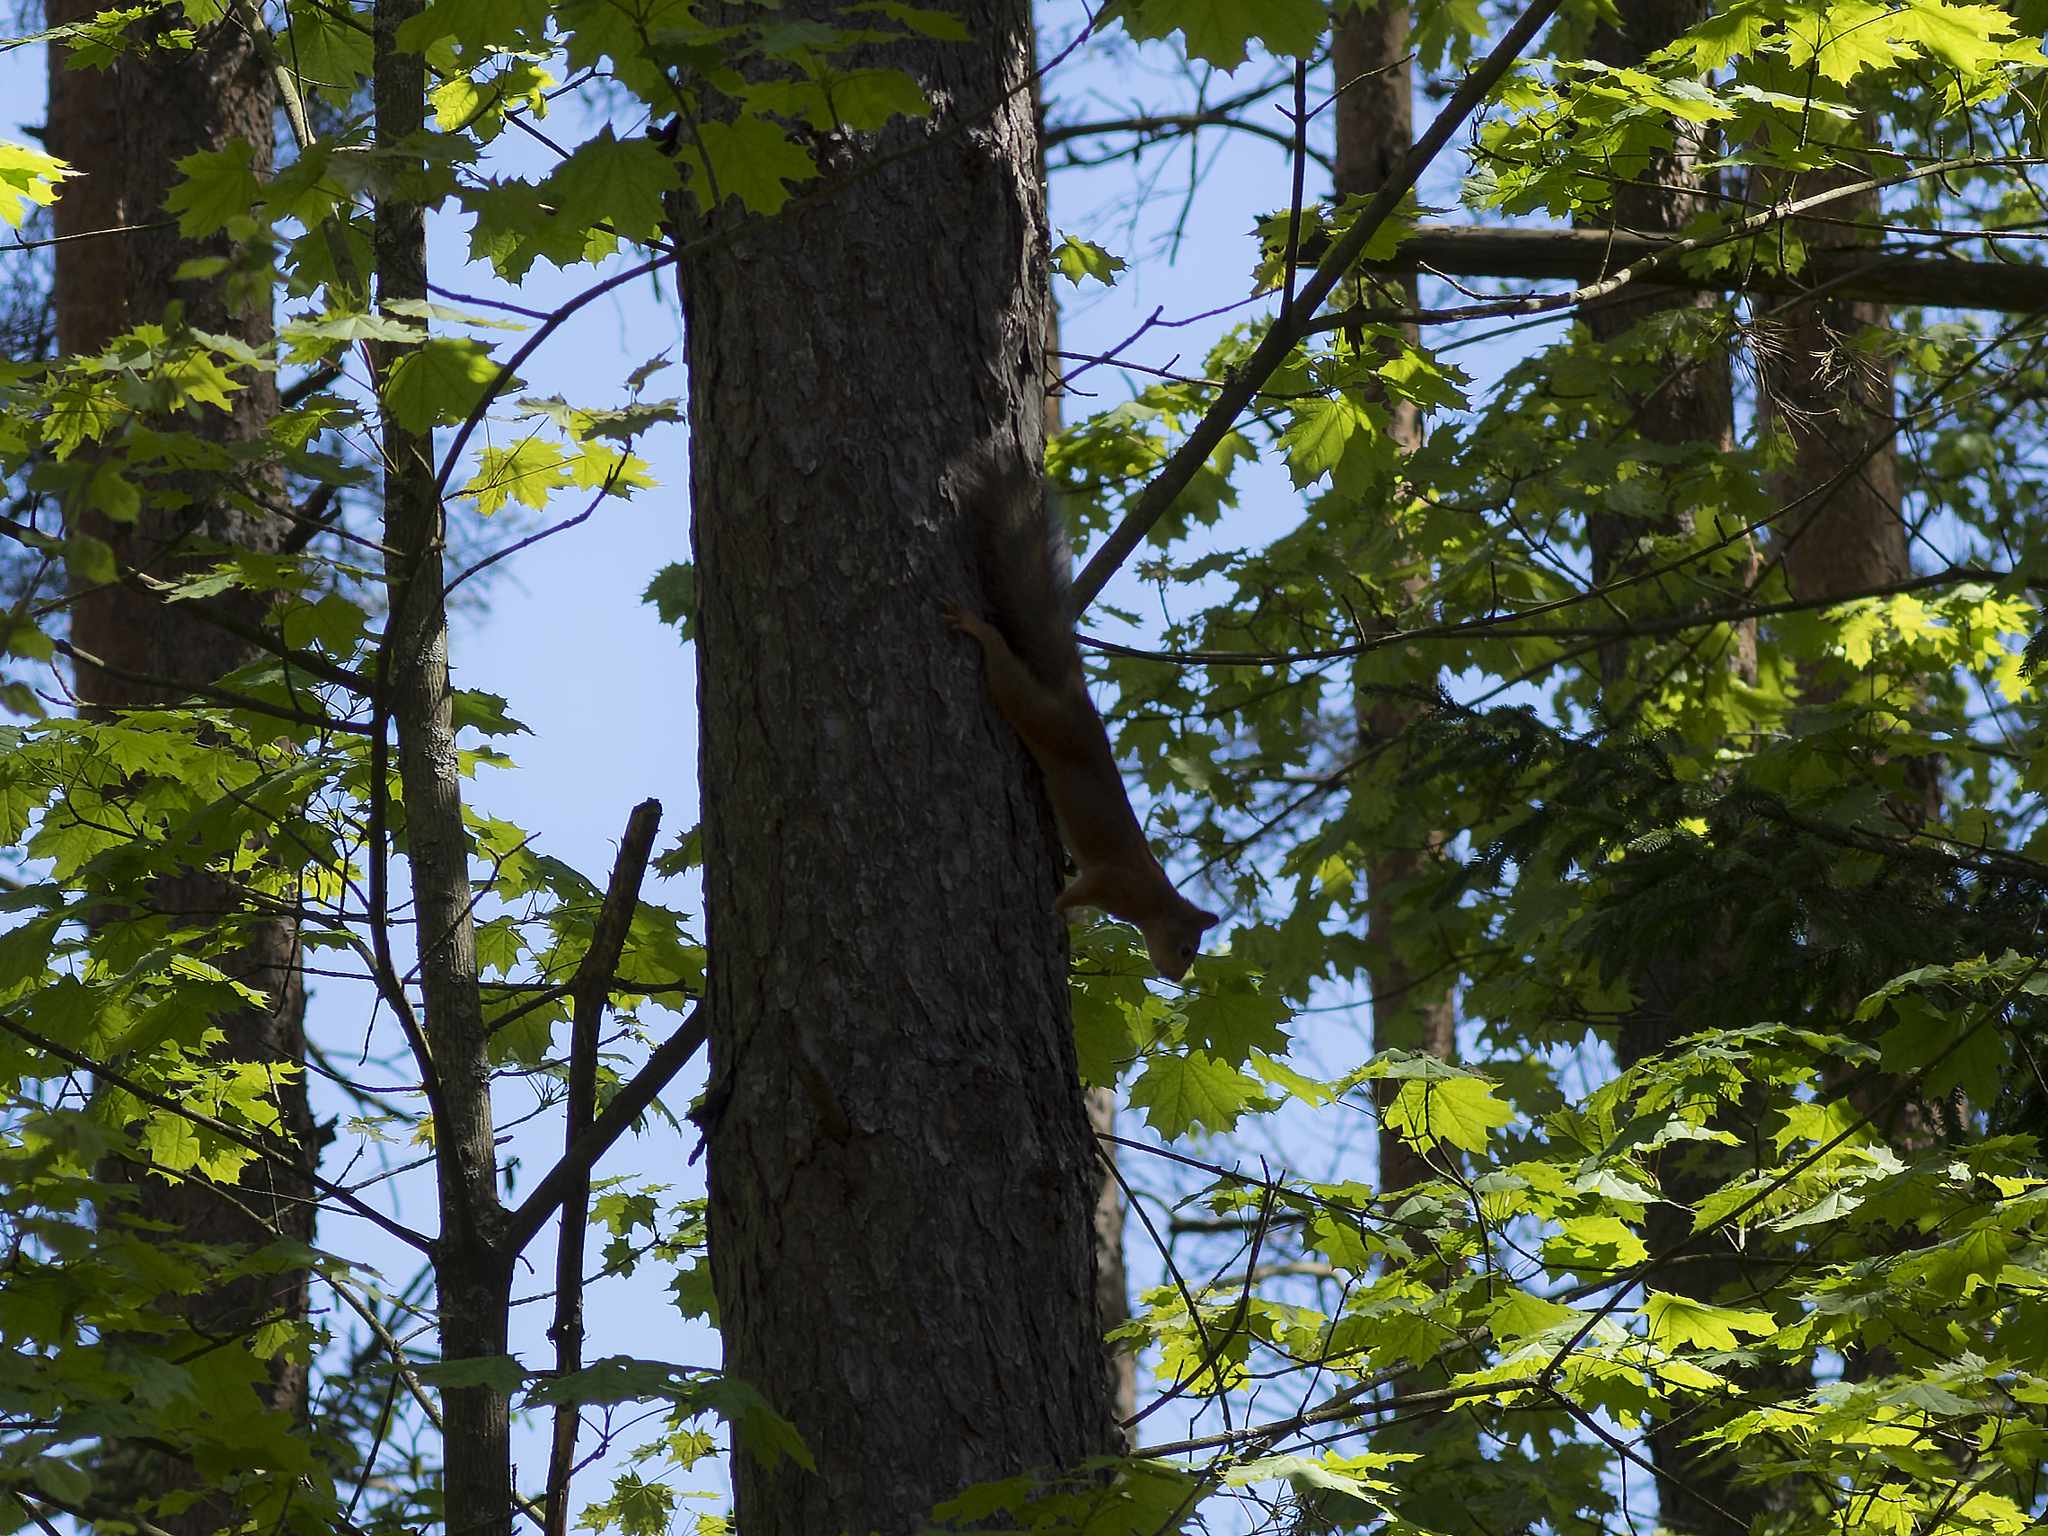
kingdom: Animalia
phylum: Chordata
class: Mammalia
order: Rodentia
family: Sciuridae
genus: Sciurus
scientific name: Sciurus vulgaris
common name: Eurasian red squirrel
